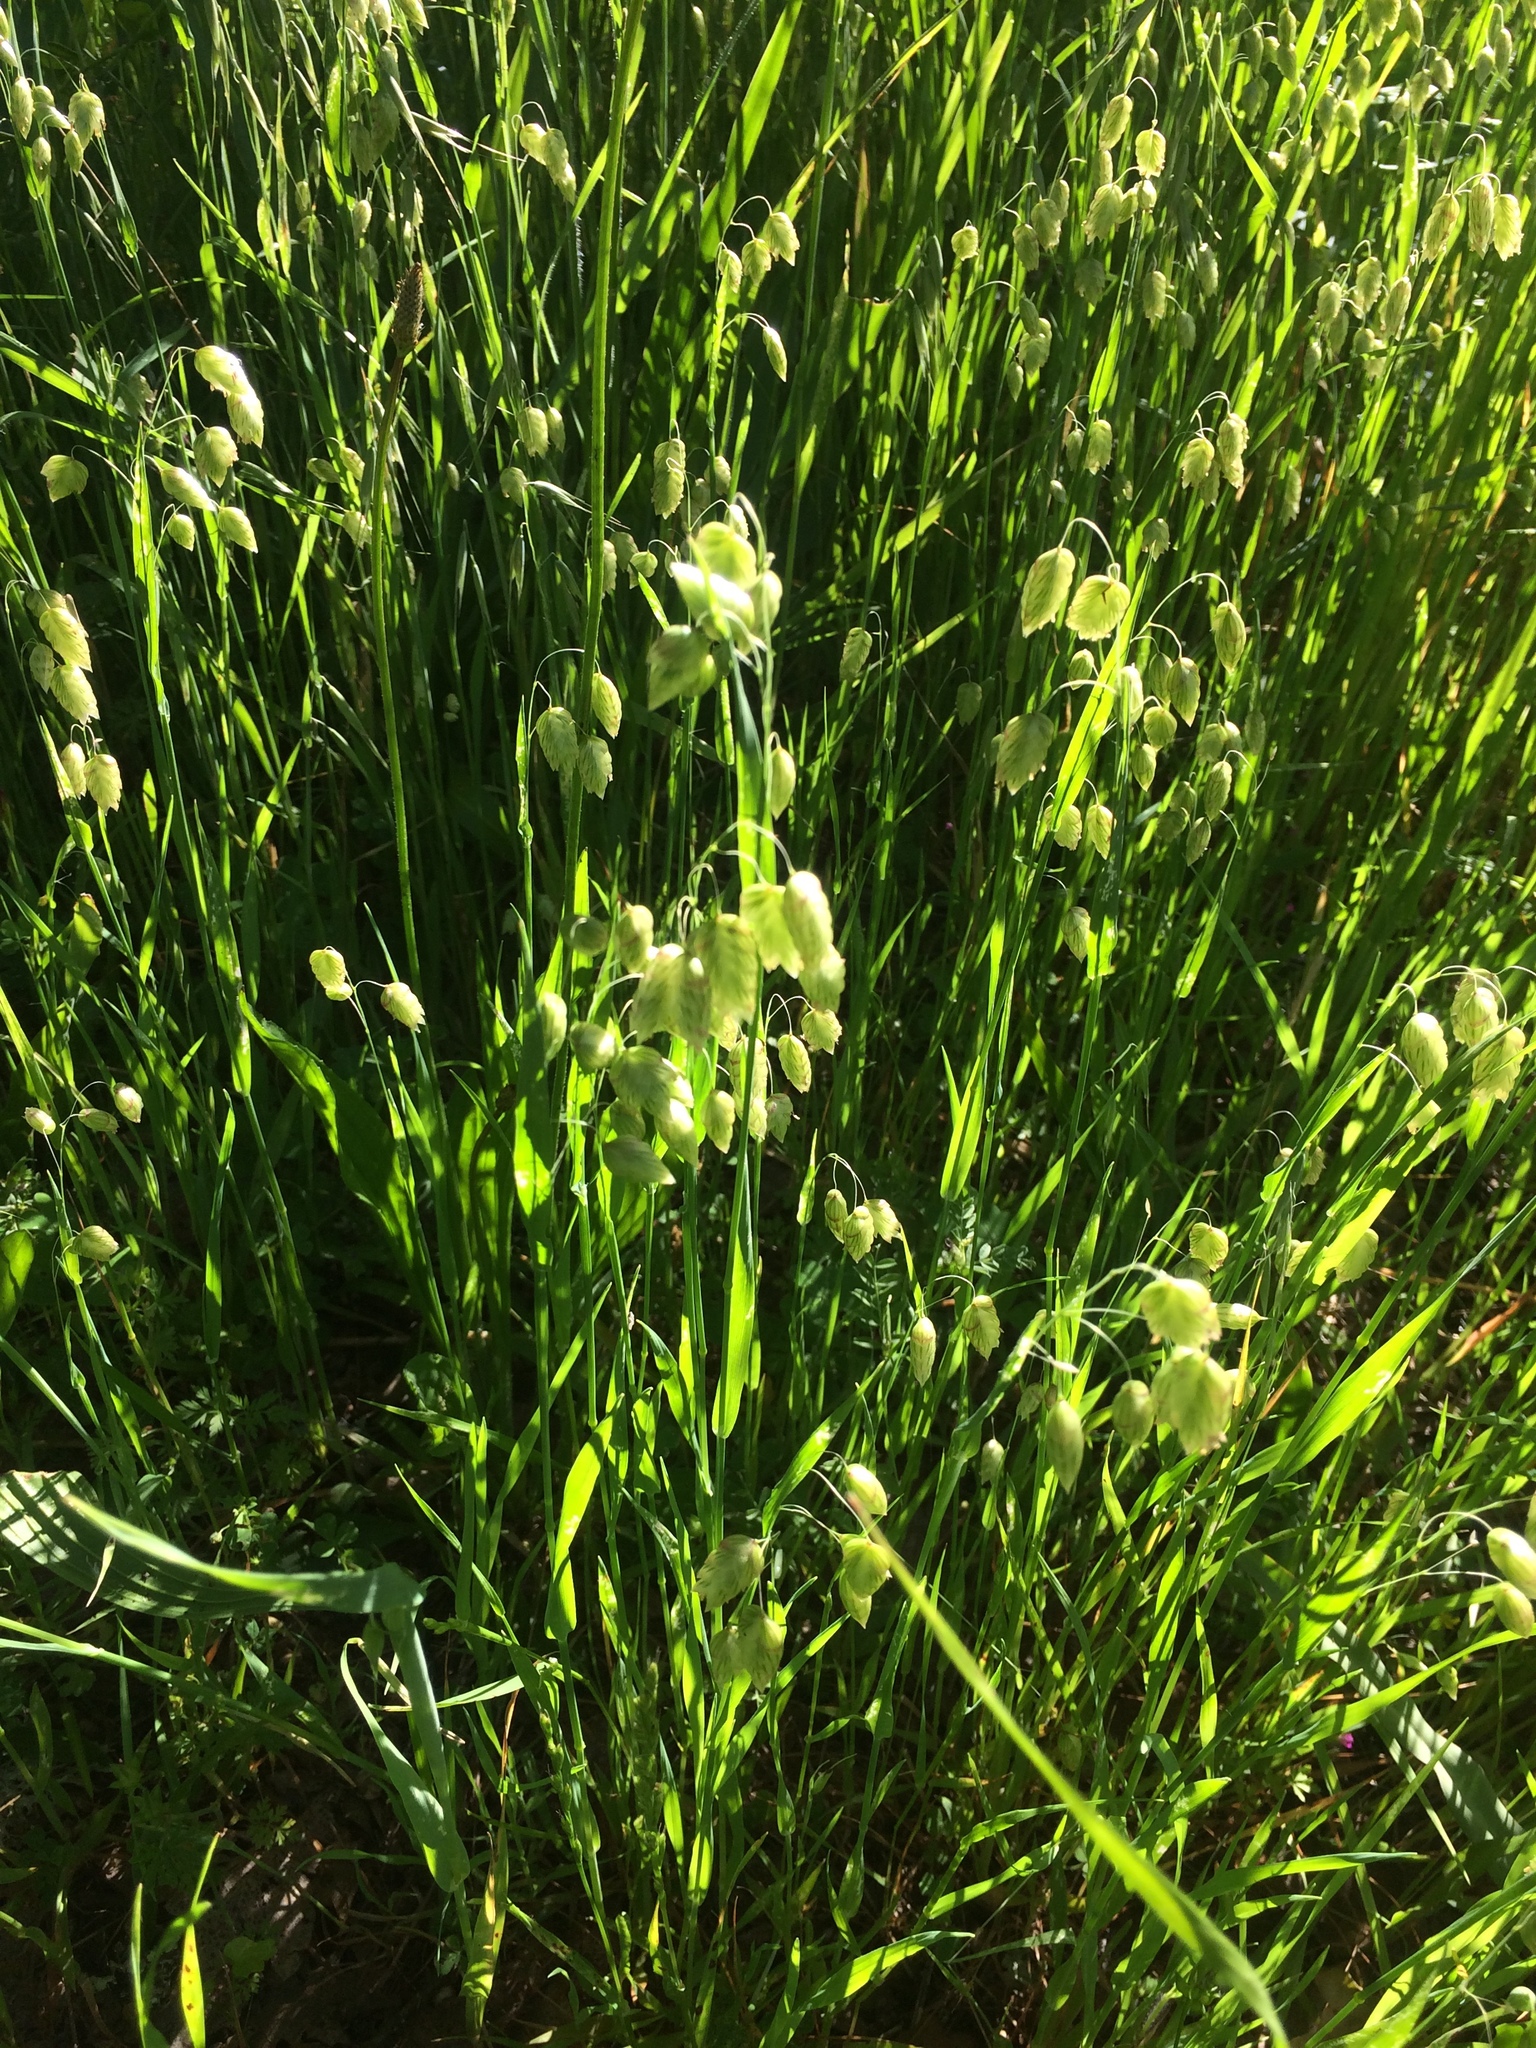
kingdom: Plantae
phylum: Tracheophyta
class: Liliopsida
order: Poales
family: Poaceae
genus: Briza
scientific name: Briza maxima
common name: Big quakinggrass
